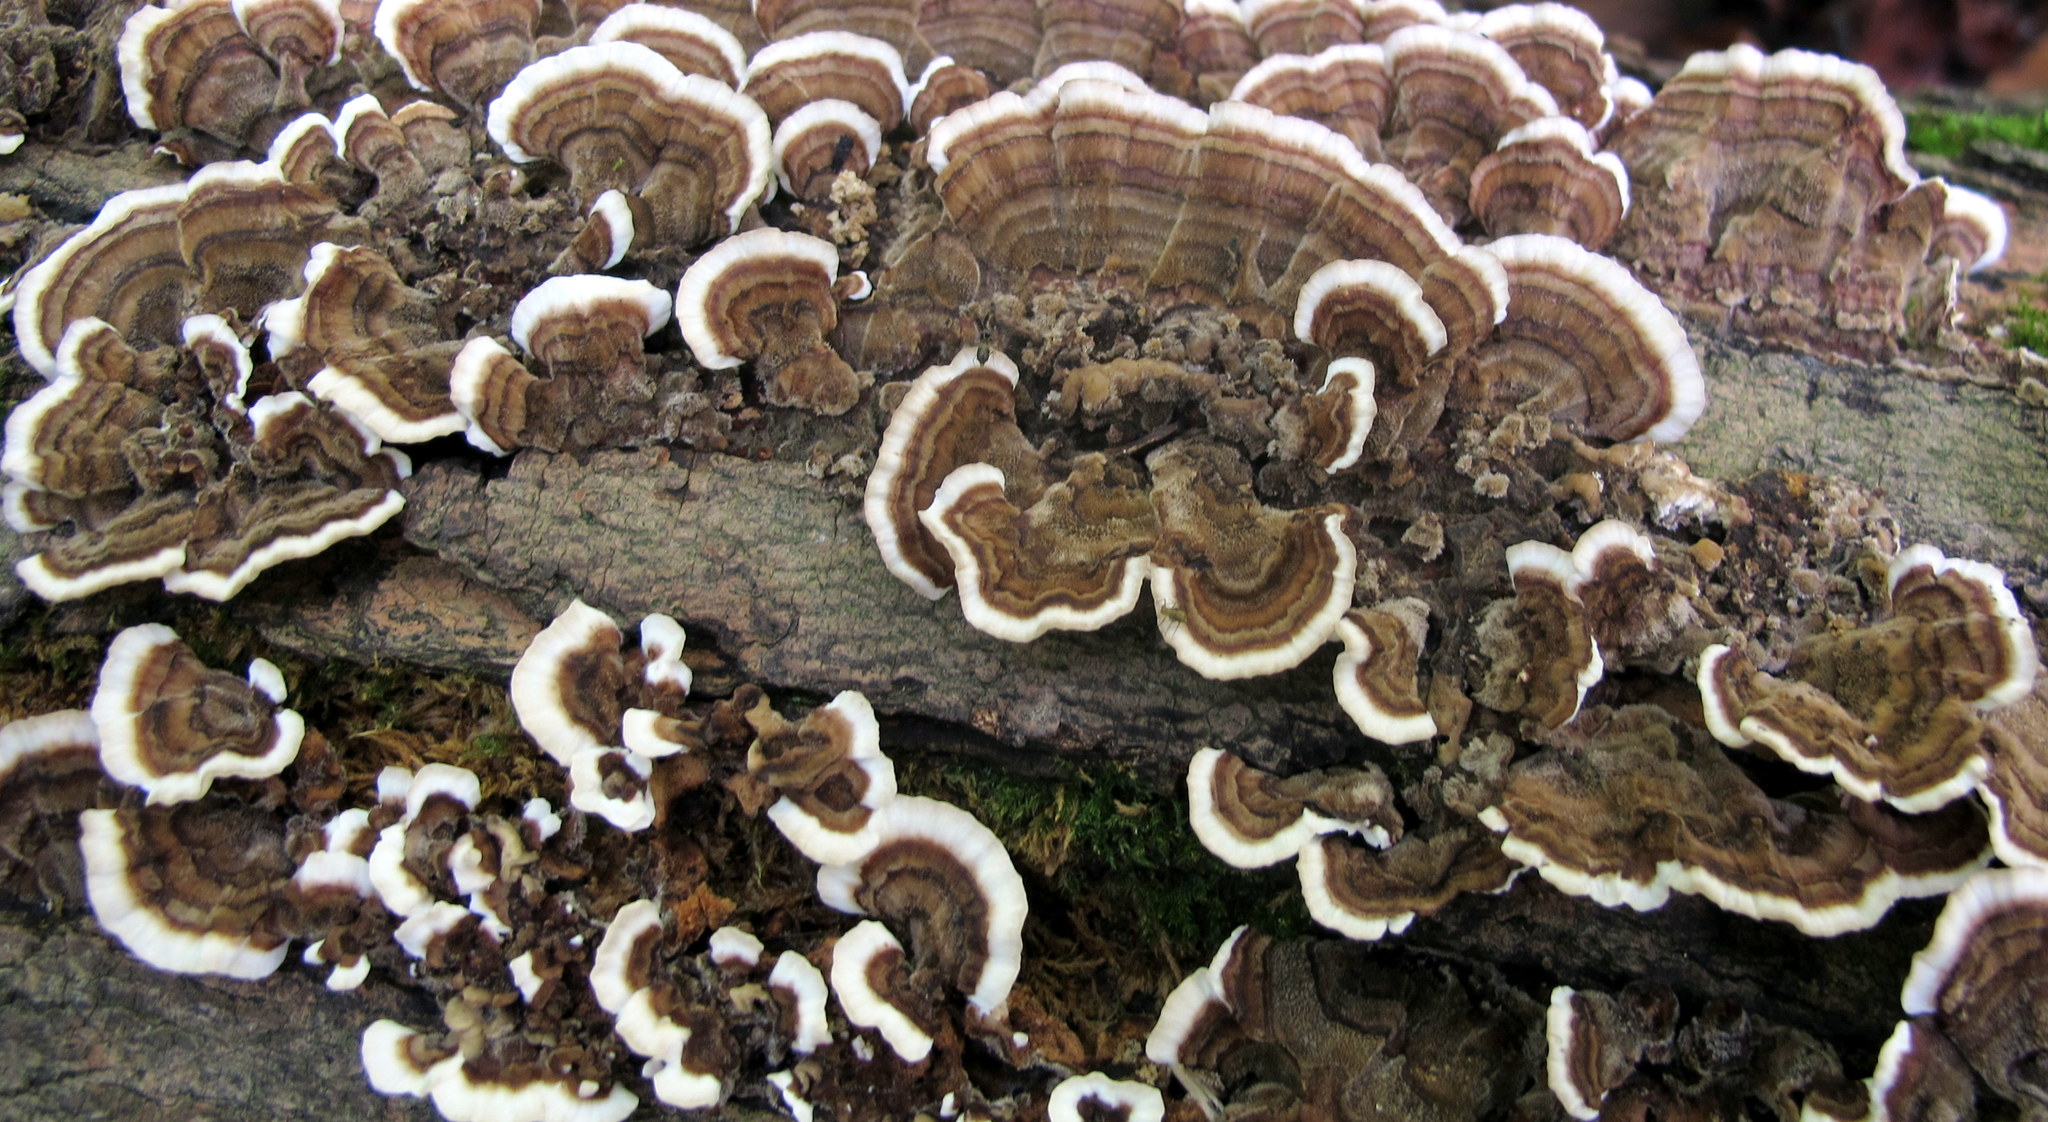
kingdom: Fungi
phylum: Basidiomycota
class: Agaricomycetes
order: Polyporales
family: Polyporaceae
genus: Trametes
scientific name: Trametes versicolor
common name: Turkeytail
